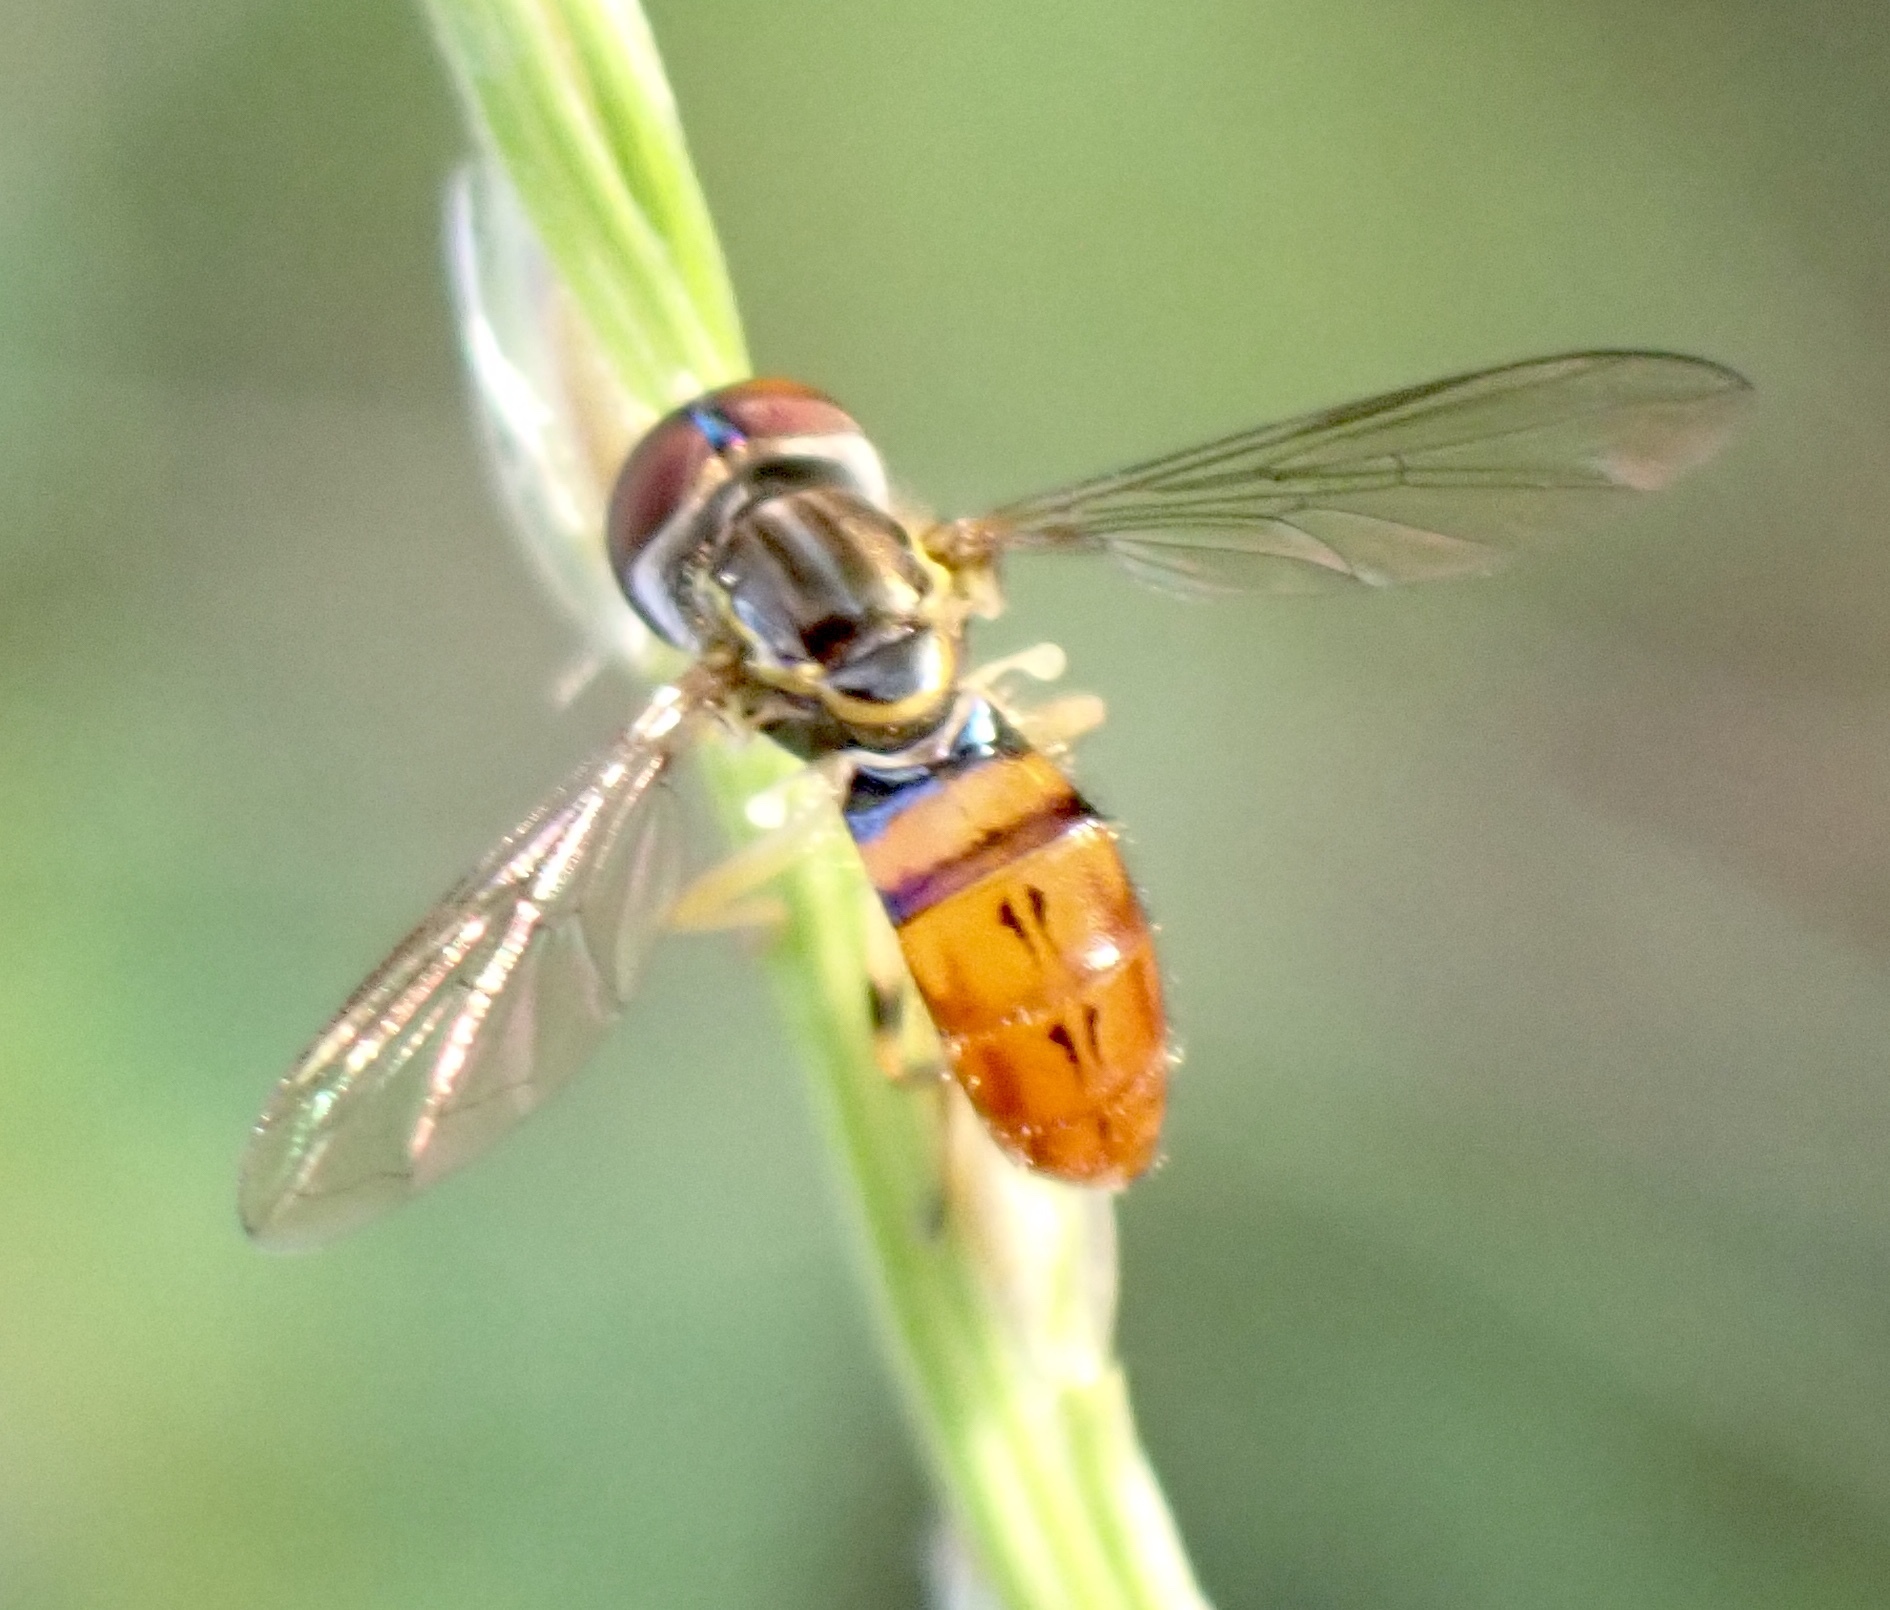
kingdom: Animalia
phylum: Arthropoda
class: Insecta
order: Diptera
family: Syrphidae
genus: Toxomerus
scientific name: Toxomerus boscii
